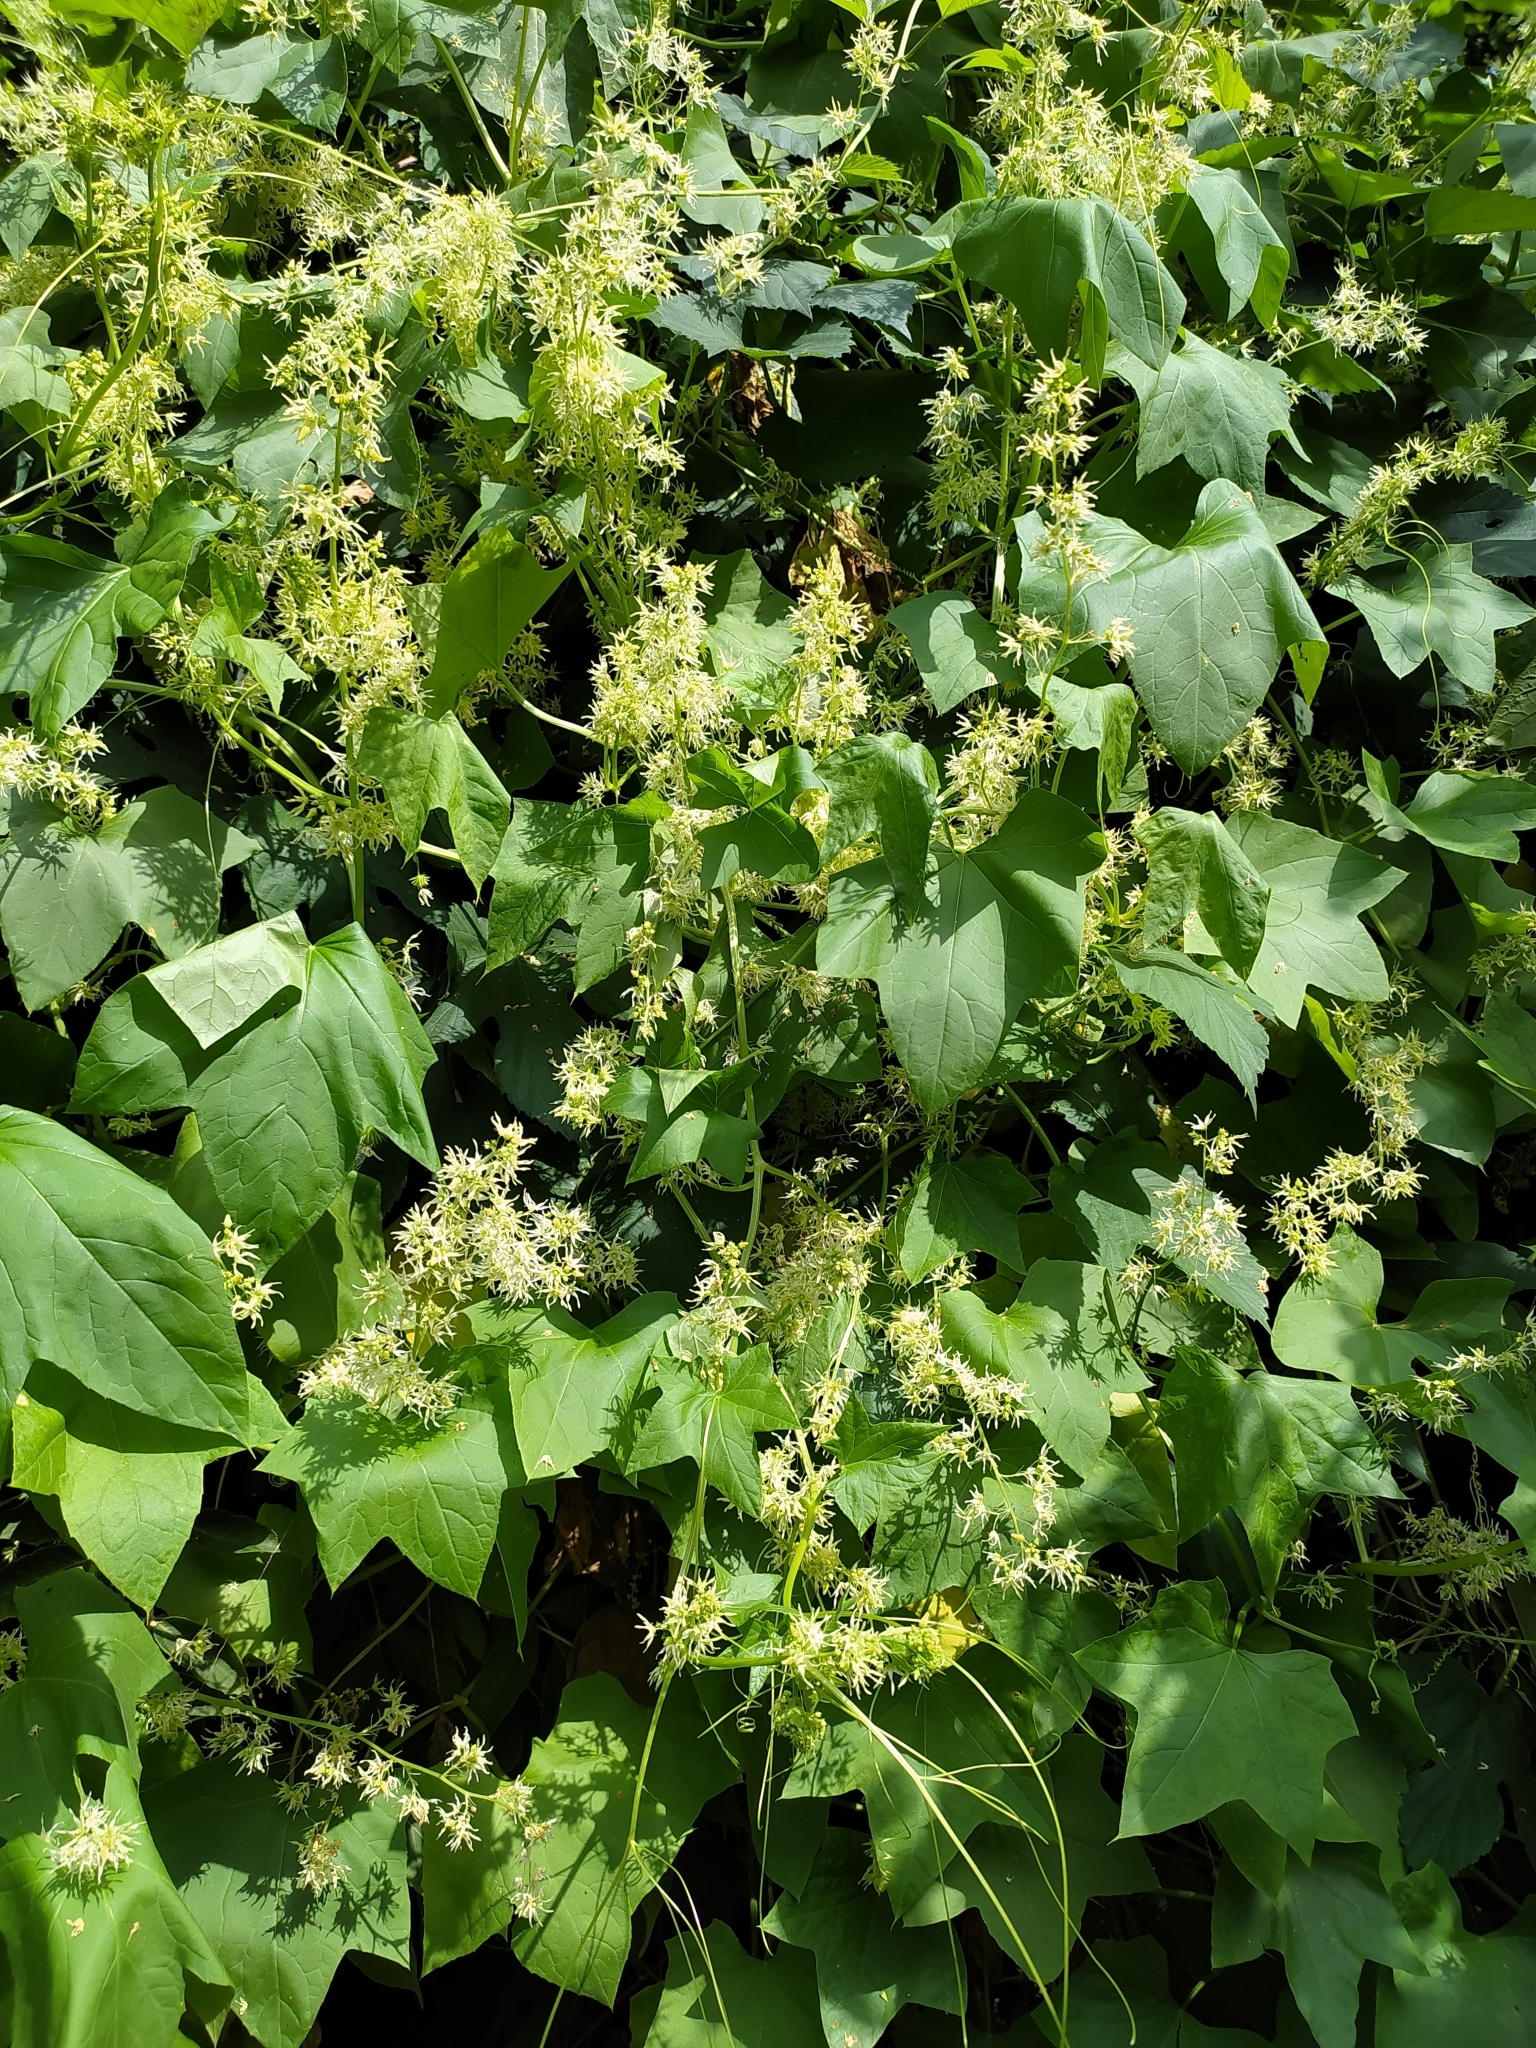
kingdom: Plantae
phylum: Tracheophyta
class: Magnoliopsida
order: Cucurbitales
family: Cucurbitaceae
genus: Echinocystis
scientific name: Echinocystis lobata
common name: Wild cucumber
